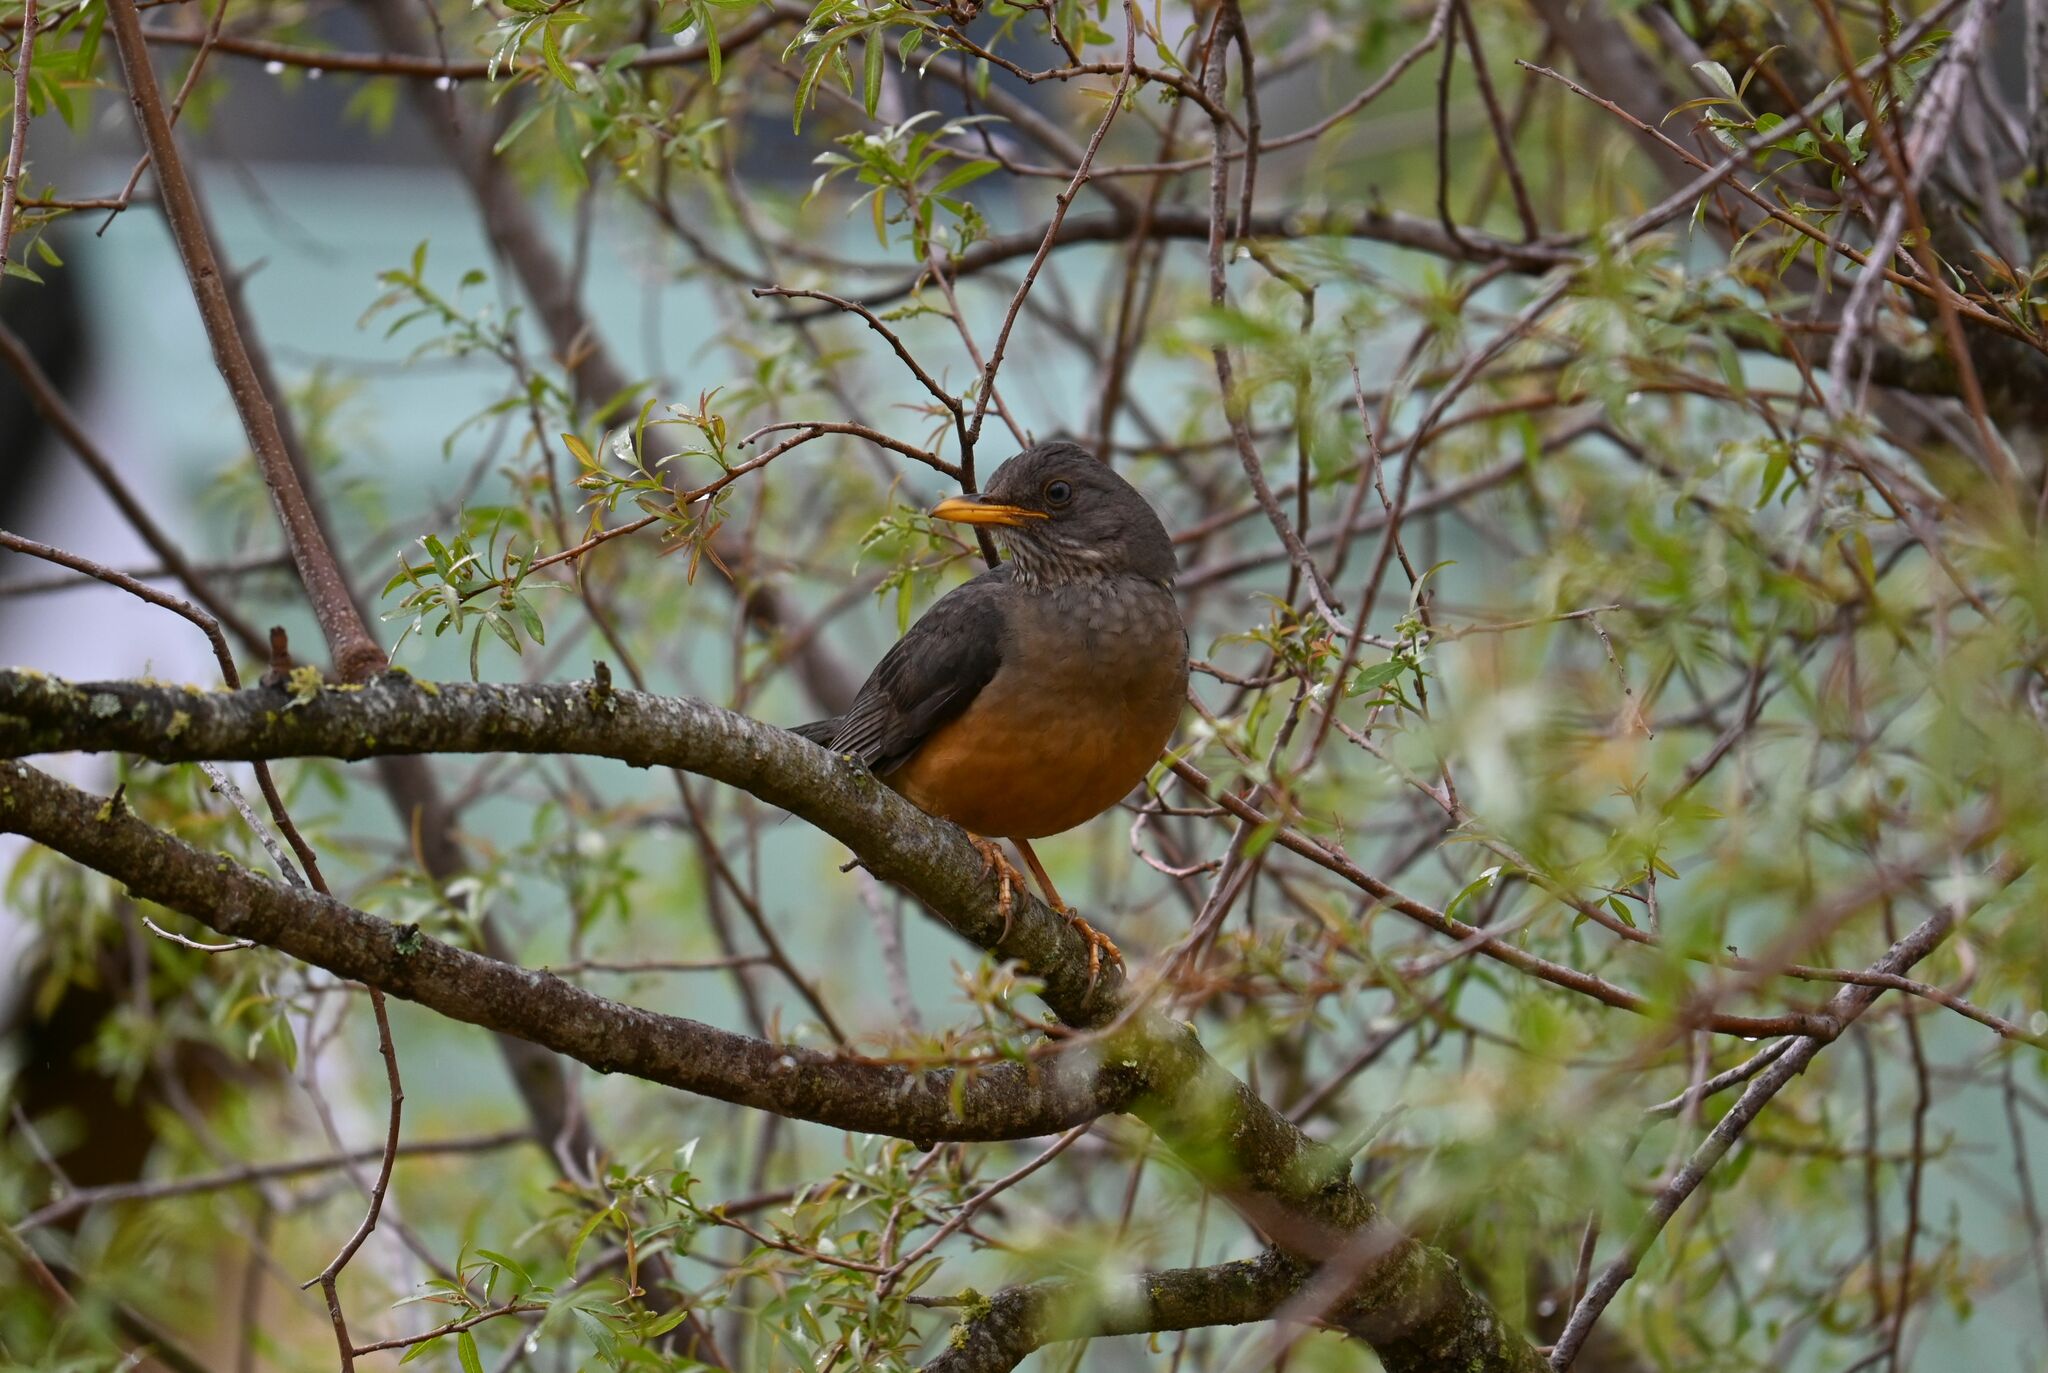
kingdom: Animalia
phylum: Chordata
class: Aves
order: Passeriformes
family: Turdidae
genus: Turdus
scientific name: Turdus olivaceus
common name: Olive thrush
